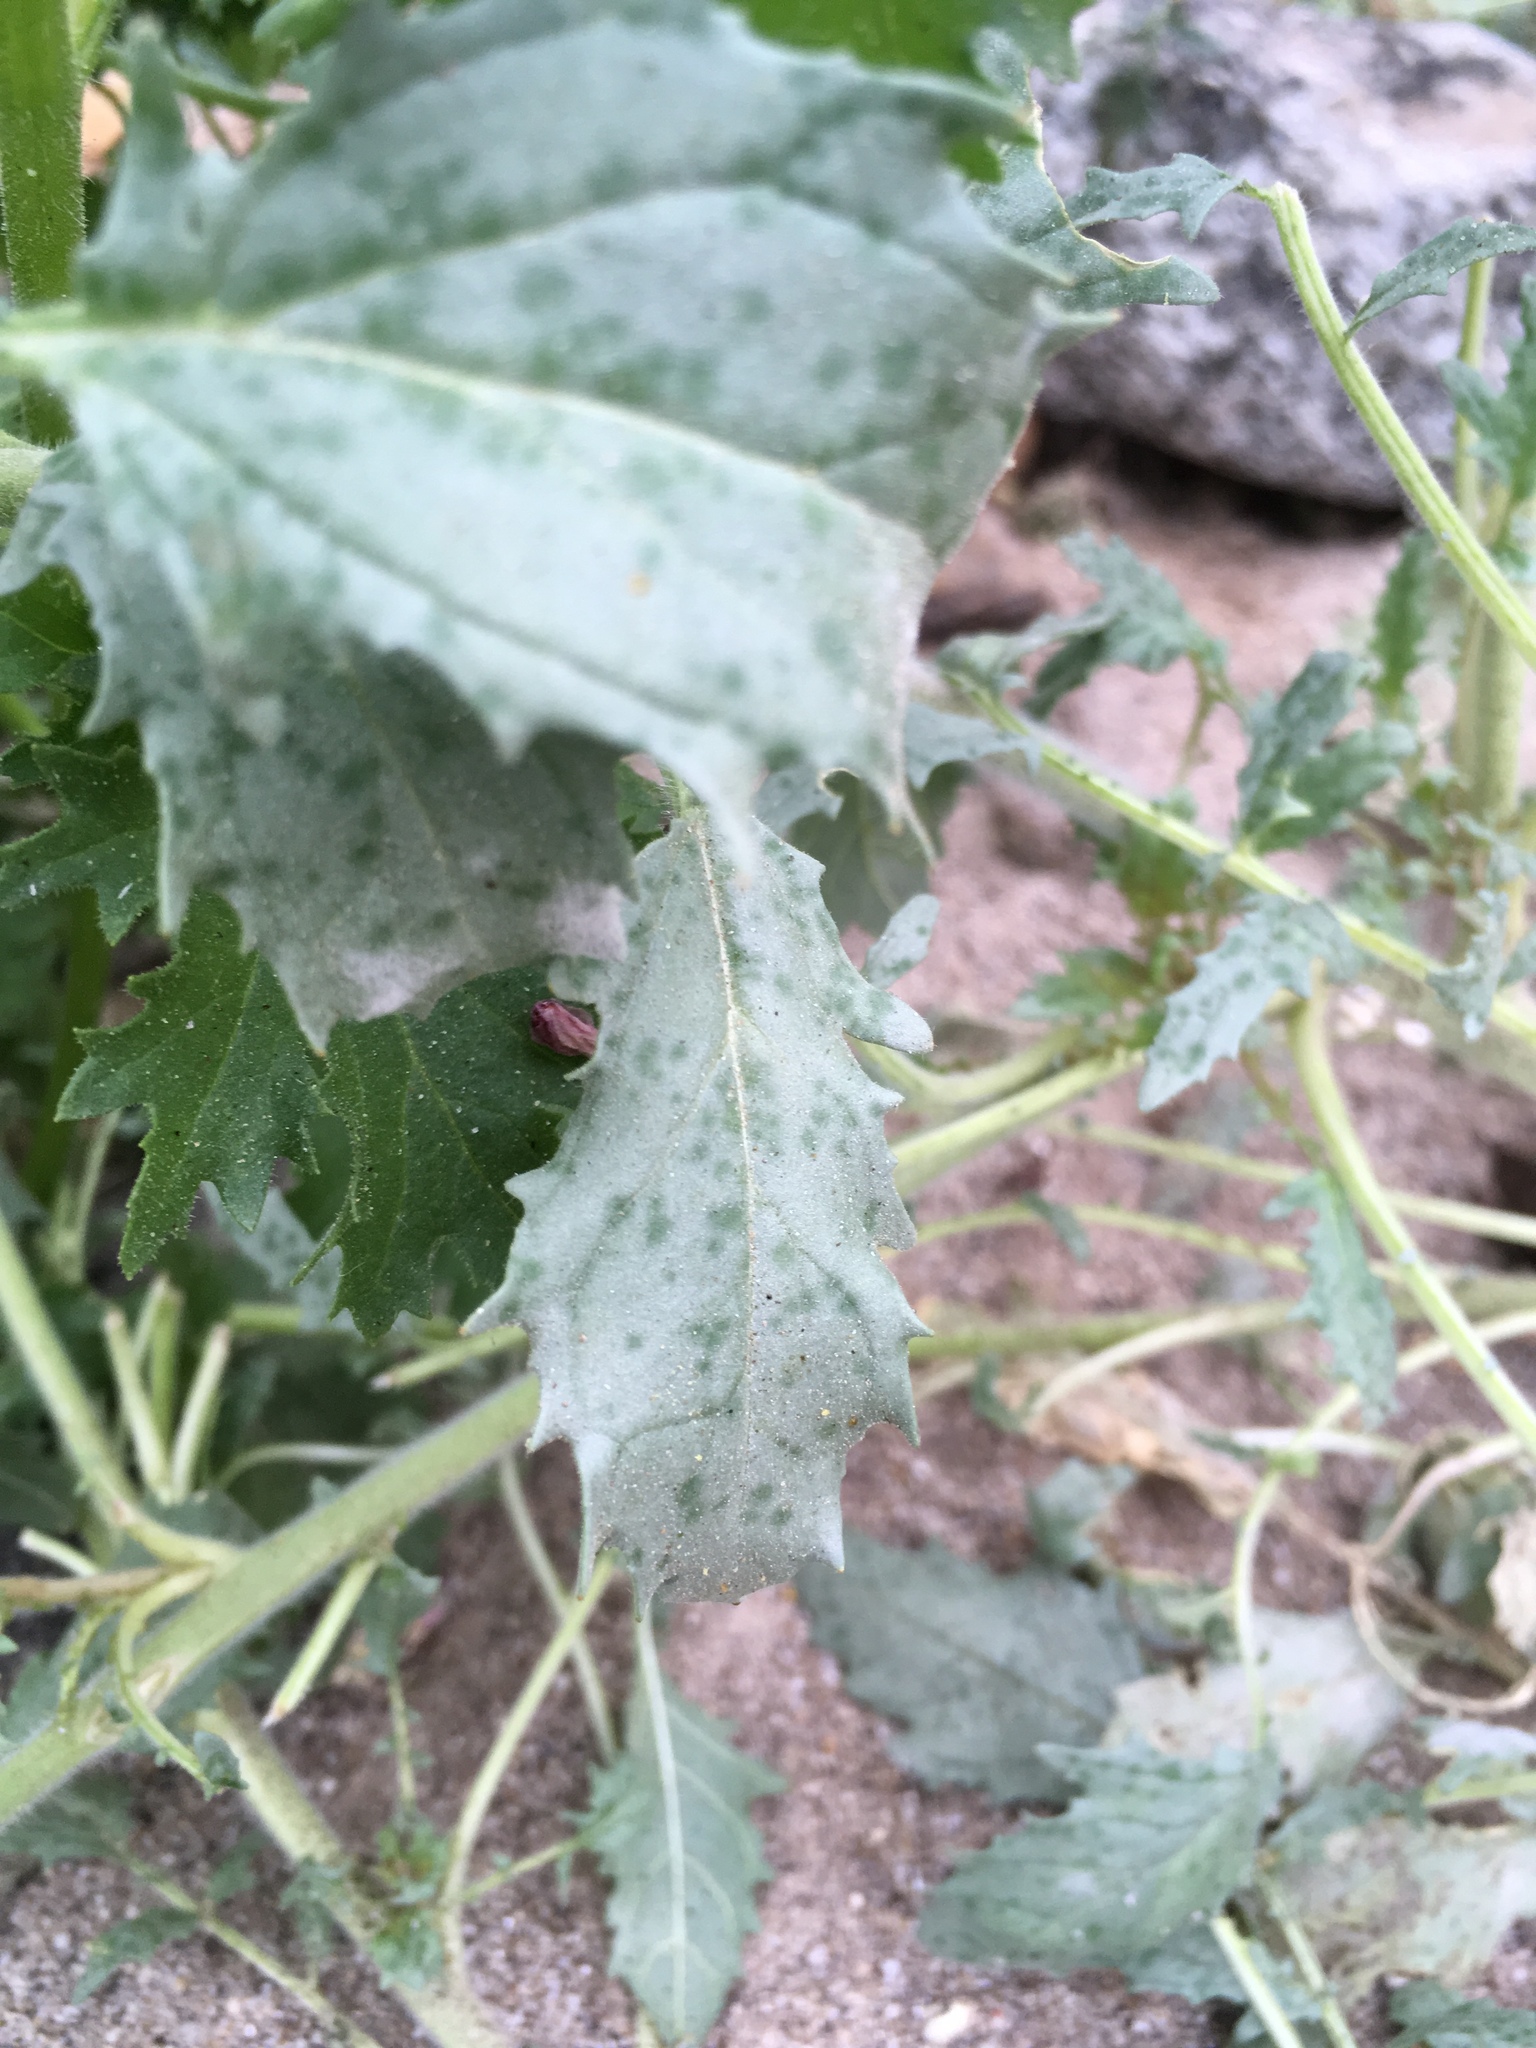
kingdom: Plantae
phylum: Tracheophyta
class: Magnoliopsida
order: Myrtales
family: Onagraceae
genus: Chylismia
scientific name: Chylismia claviformis
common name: Browneyes
